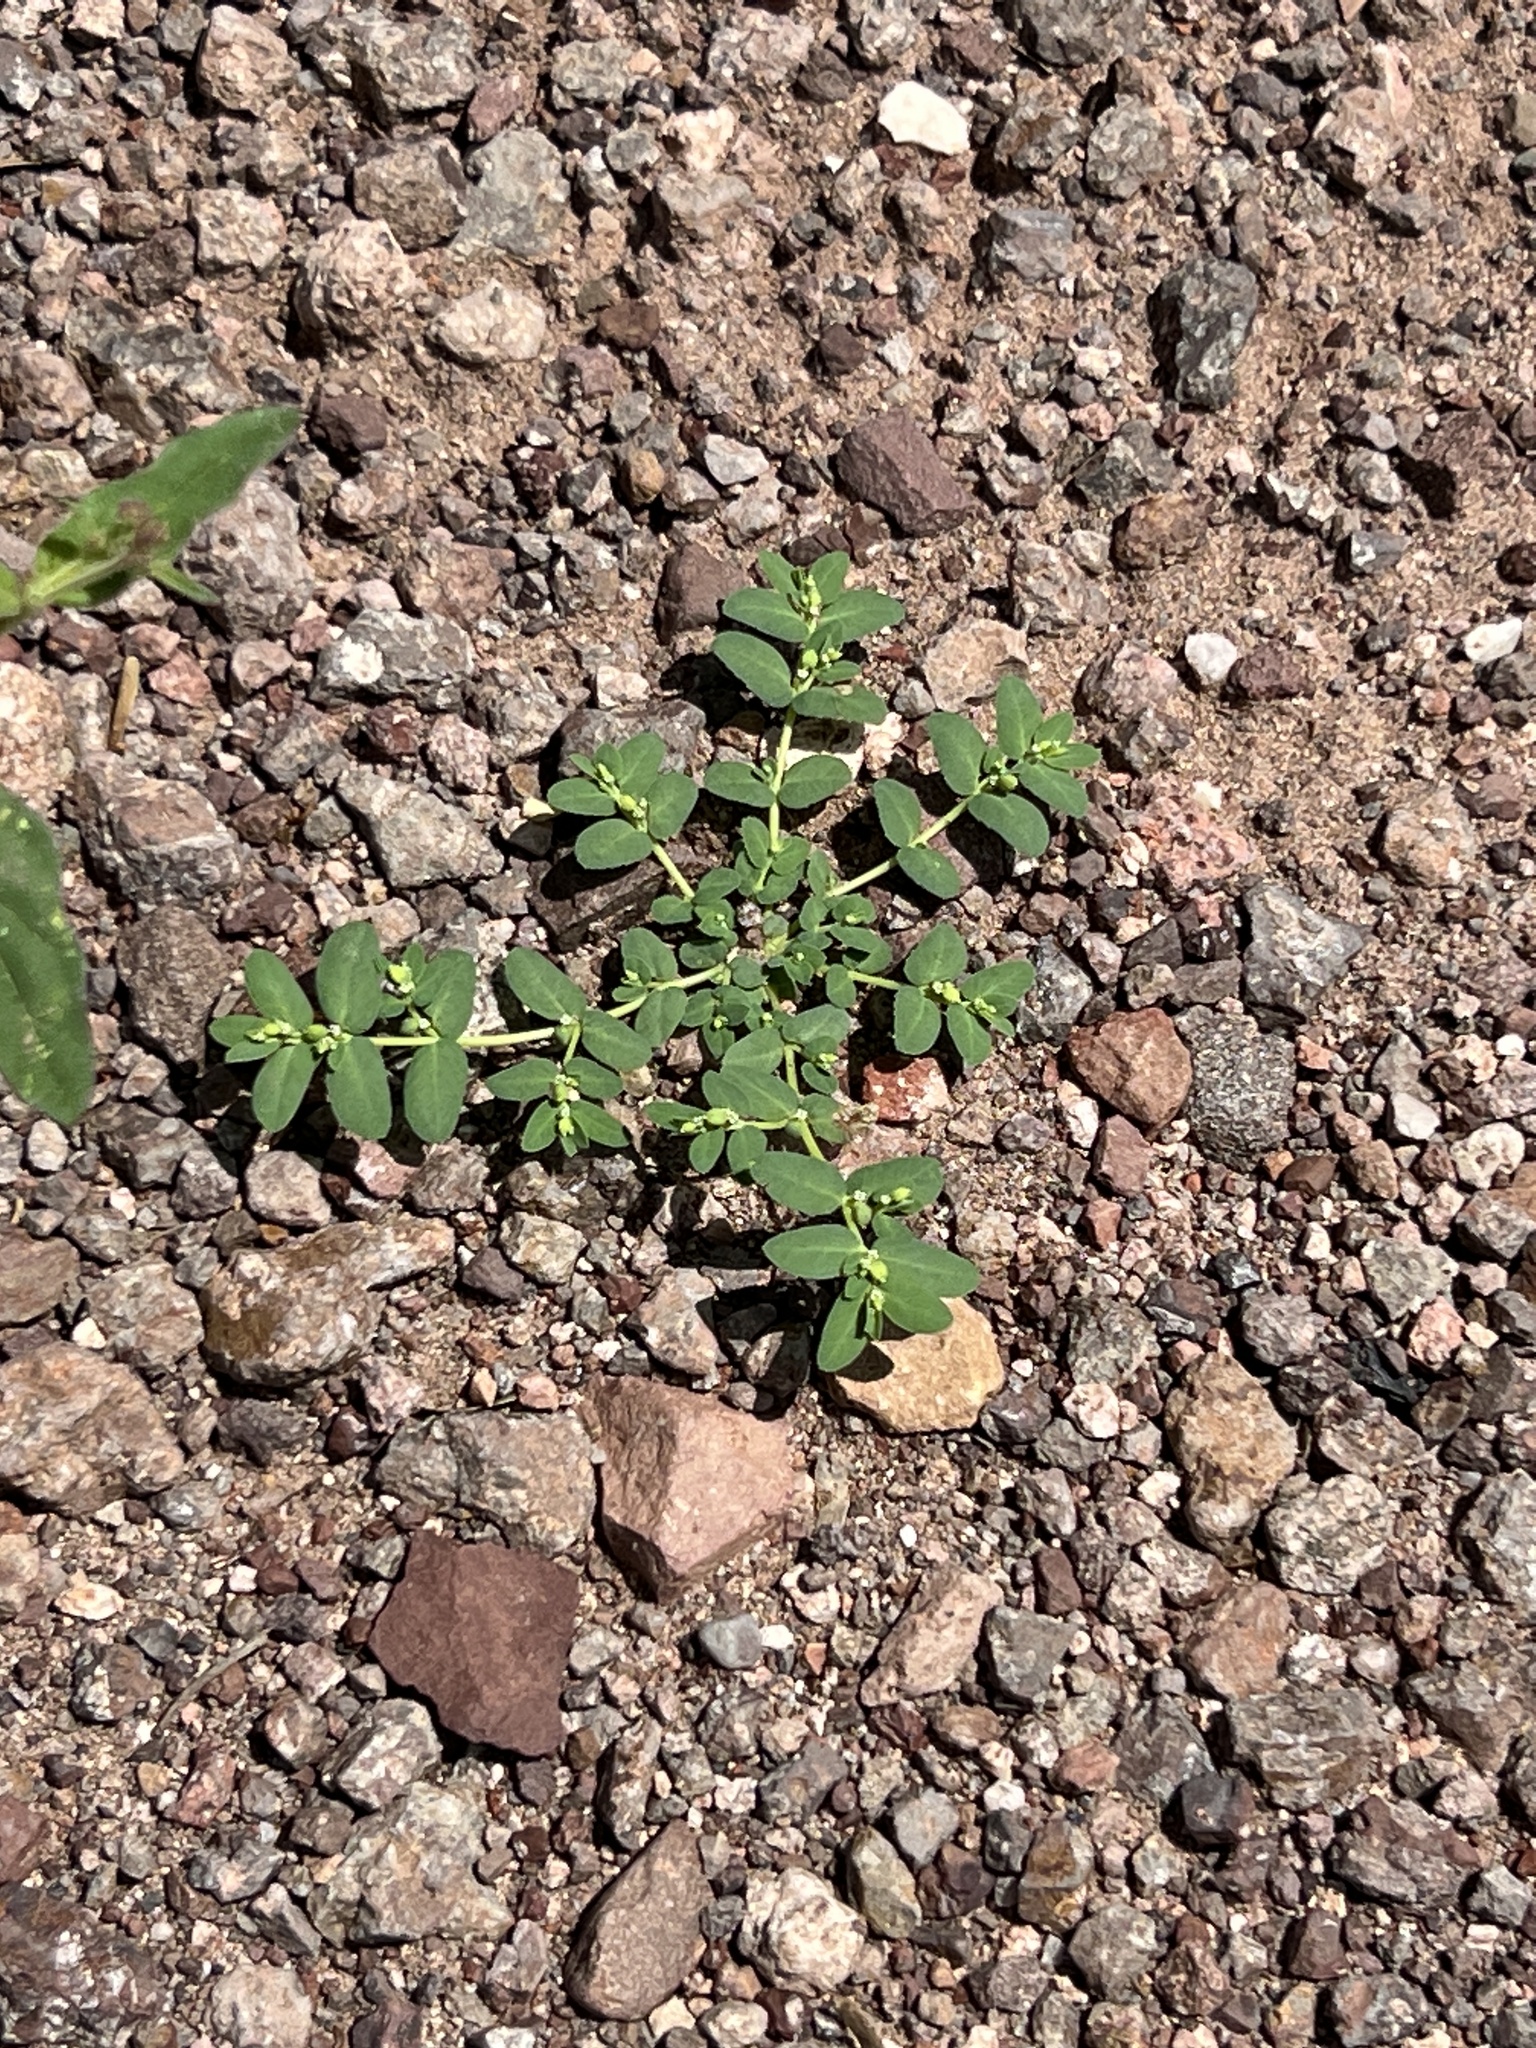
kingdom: Plantae
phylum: Tracheophyta
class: Magnoliopsida
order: Malpighiales
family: Euphorbiaceae
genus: Euphorbia
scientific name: Euphorbia abramsiana
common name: Abram's spurge
